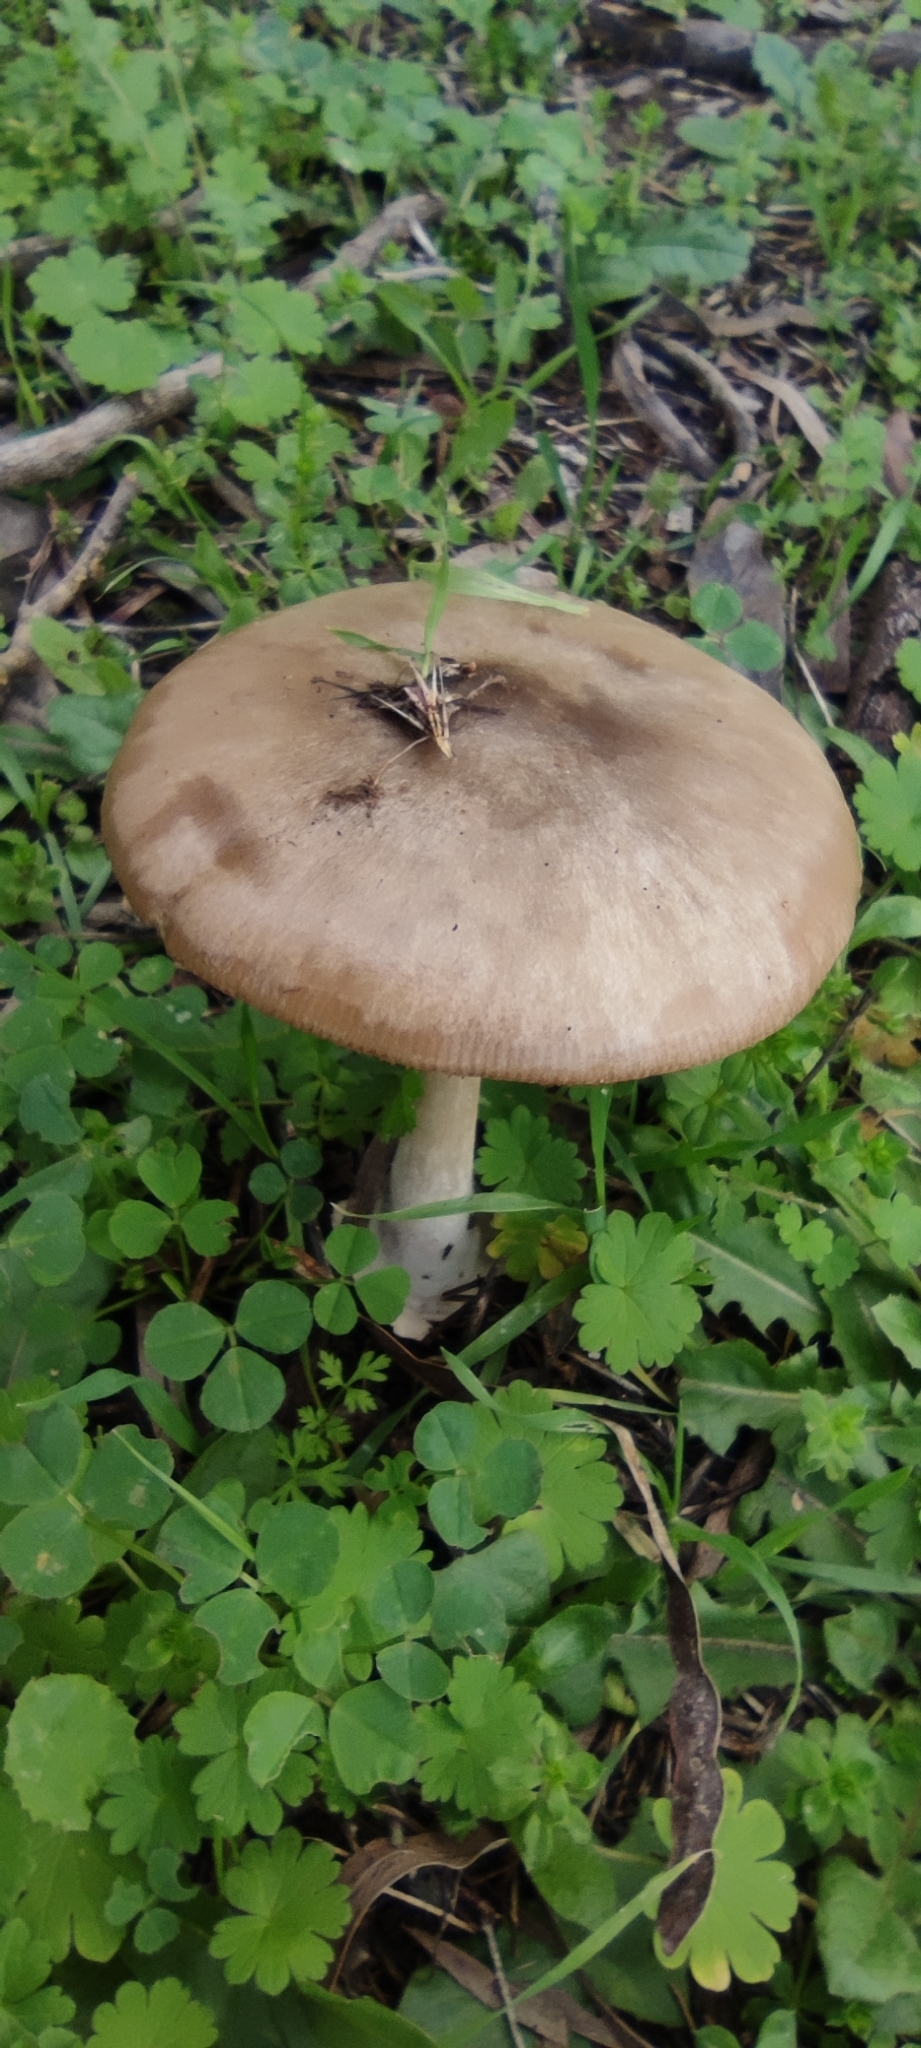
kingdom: Fungi
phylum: Basidiomycota
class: Agaricomycetes
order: Agaricales
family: Pluteaceae
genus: Volvopluteus
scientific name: Volvopluteus gloiocephalus
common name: Stubble rosegill
